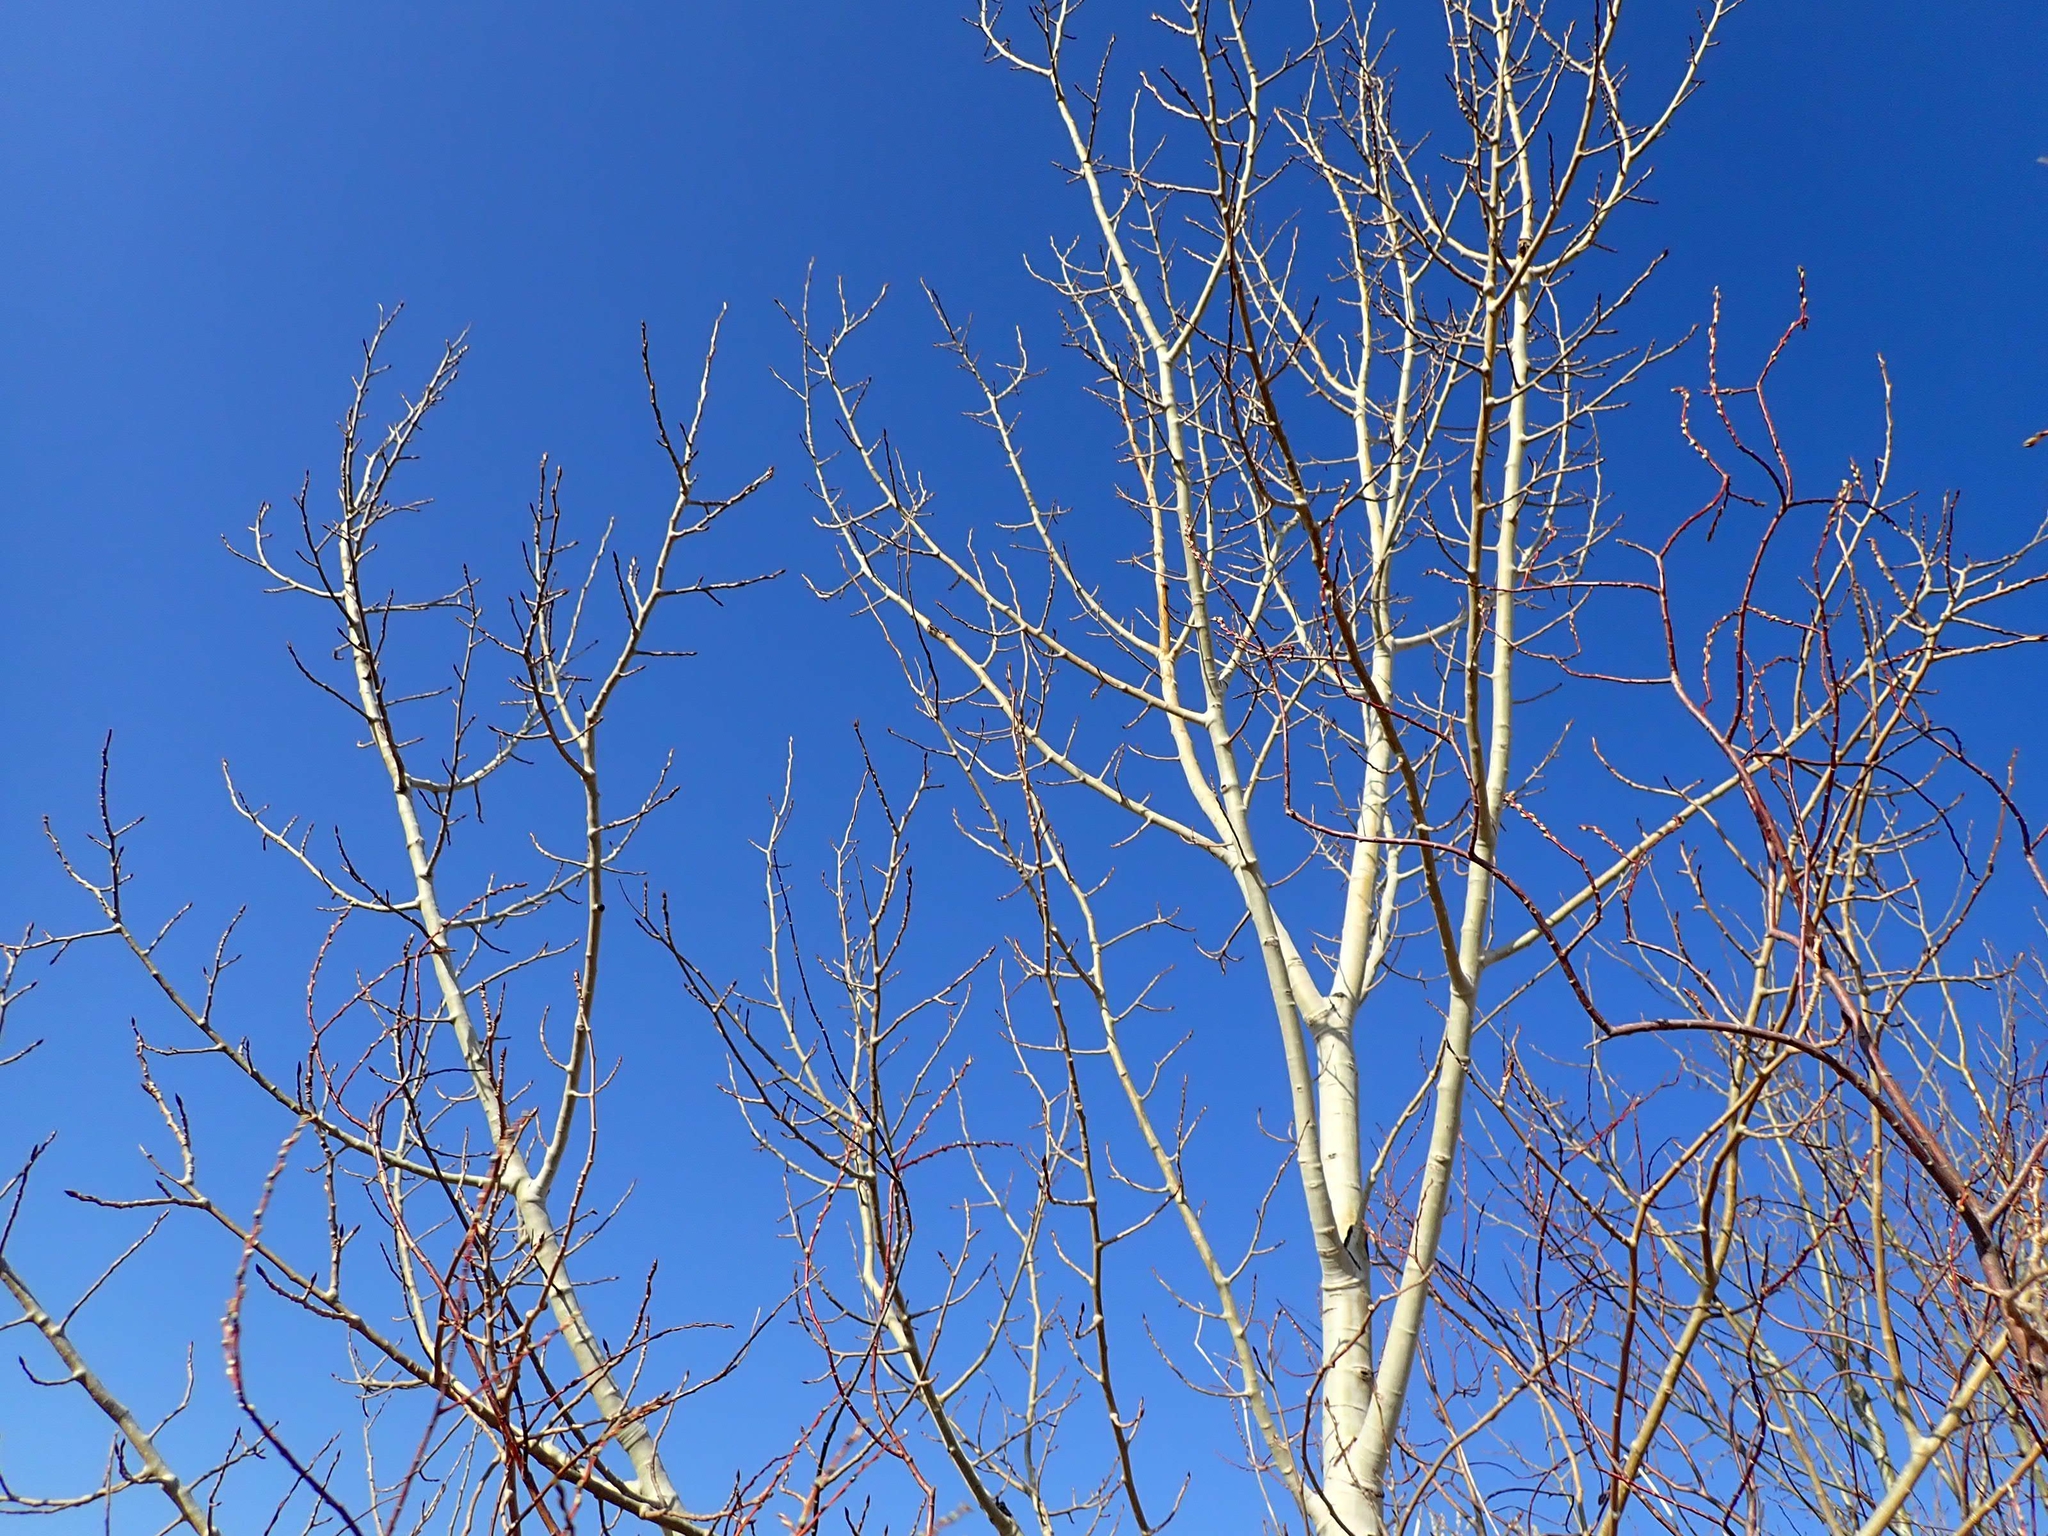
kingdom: Plantae
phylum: Tracheophyta
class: Magnoliopsida
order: Malpighiales
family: Salicaceae
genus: Populus
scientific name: Populus tremuloides
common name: Quaking aspen
